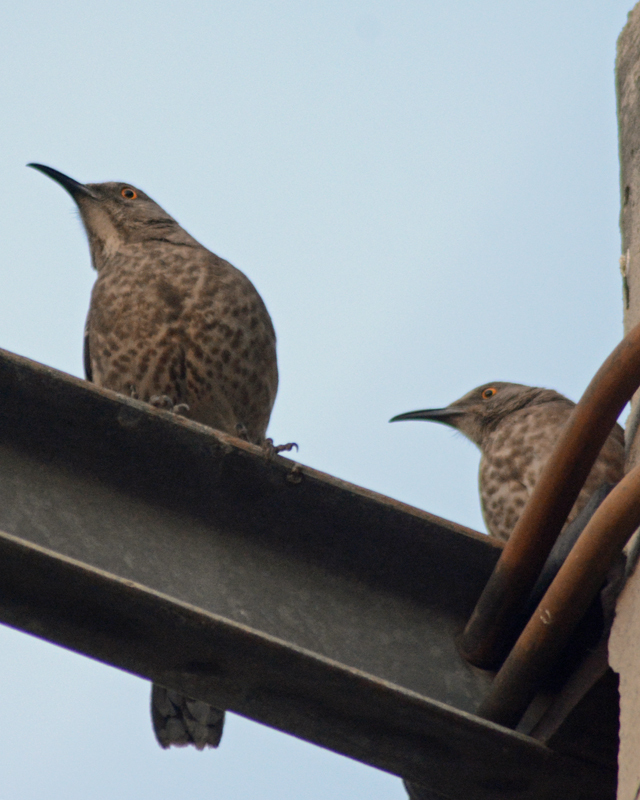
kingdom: Animalia
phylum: Chordata
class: Aves
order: Passeriformes
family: Mimidae
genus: Toxostoma
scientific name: Toxostoma curvirostre
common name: Curve-billed thrasher
